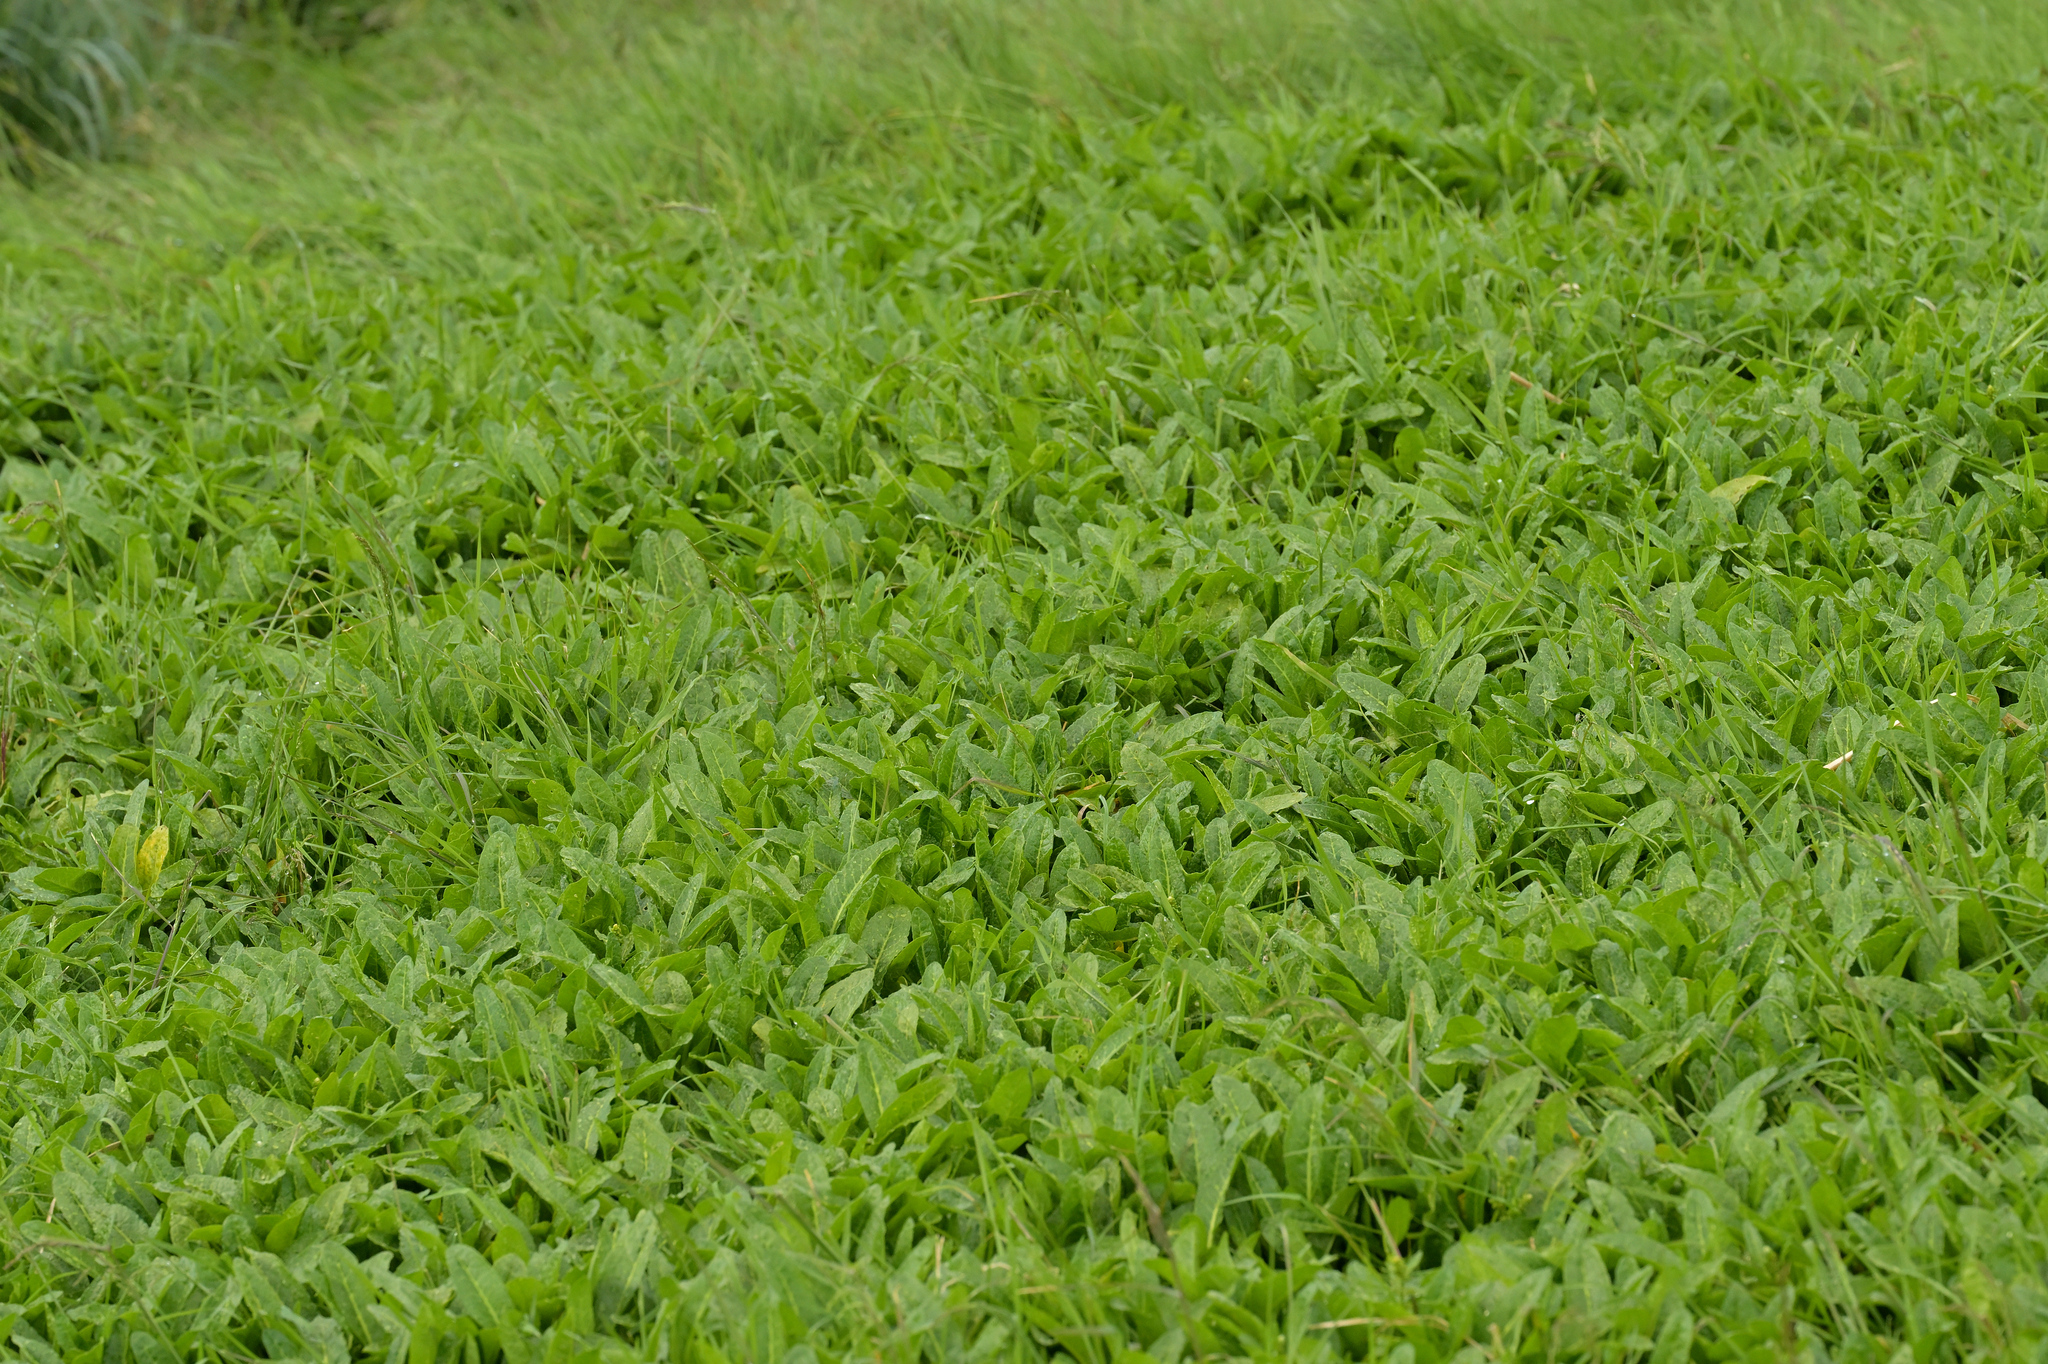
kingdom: Plantae
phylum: Tracheophyta
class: Magnoliopsida
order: Caryophyllales
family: Polygonaceae
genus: Rumex
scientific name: Rumex neglectus
